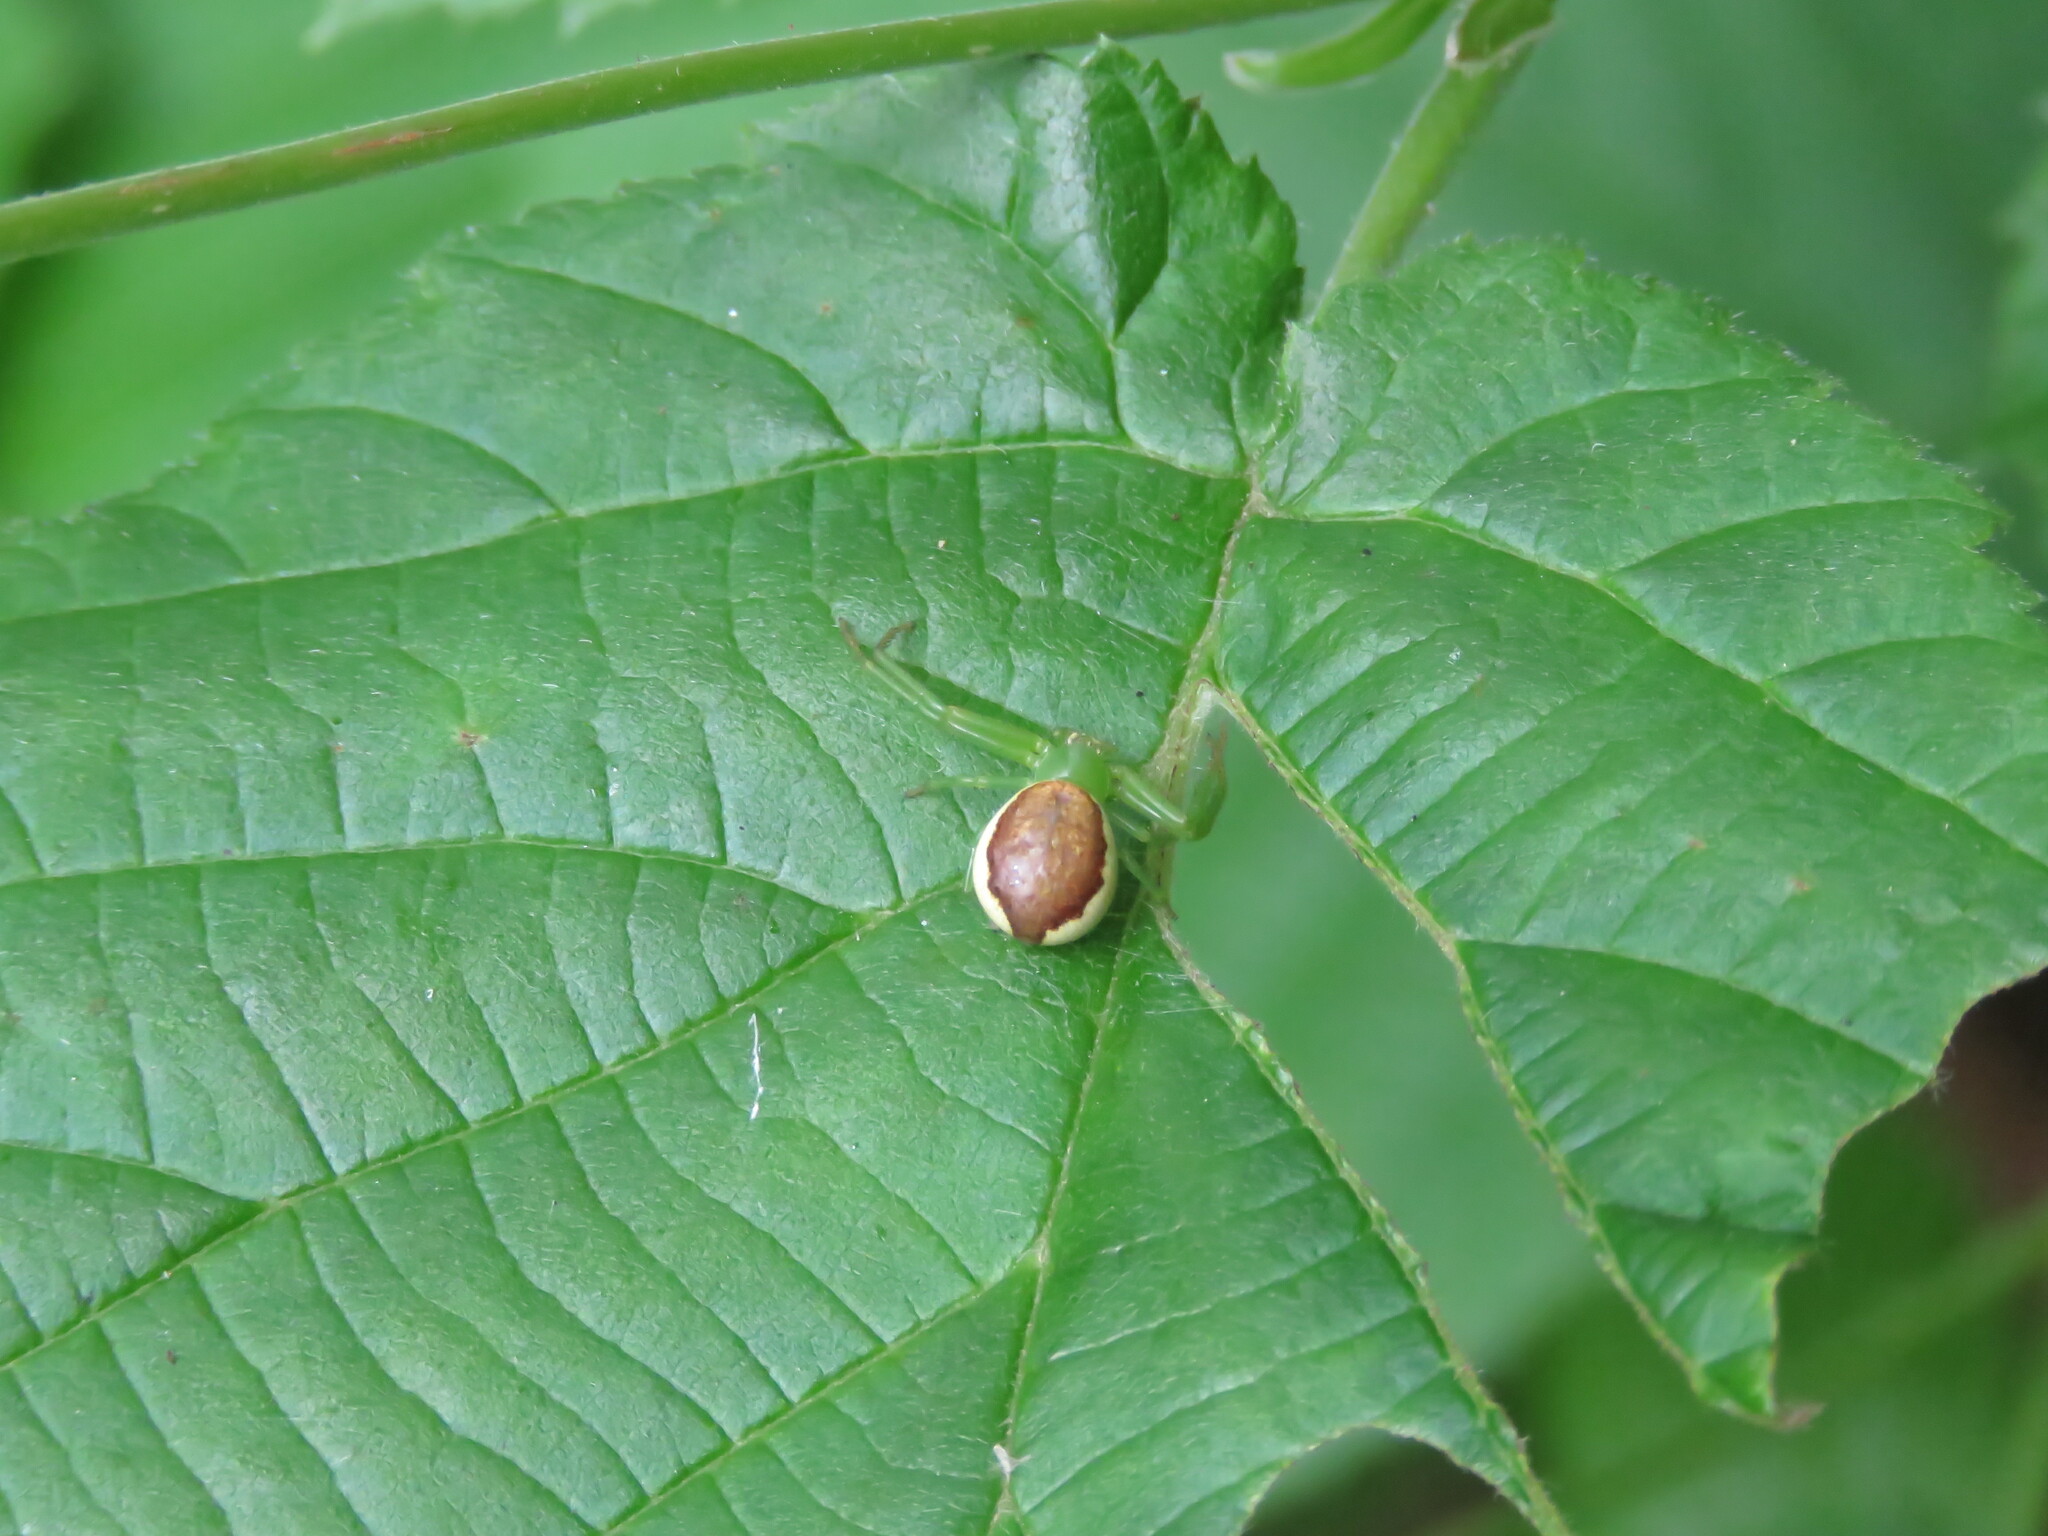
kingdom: Animalia
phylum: Arthropoda
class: Arachnida
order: Araneae
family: Thomisidae
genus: Diaea
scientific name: Diaea dorsata
